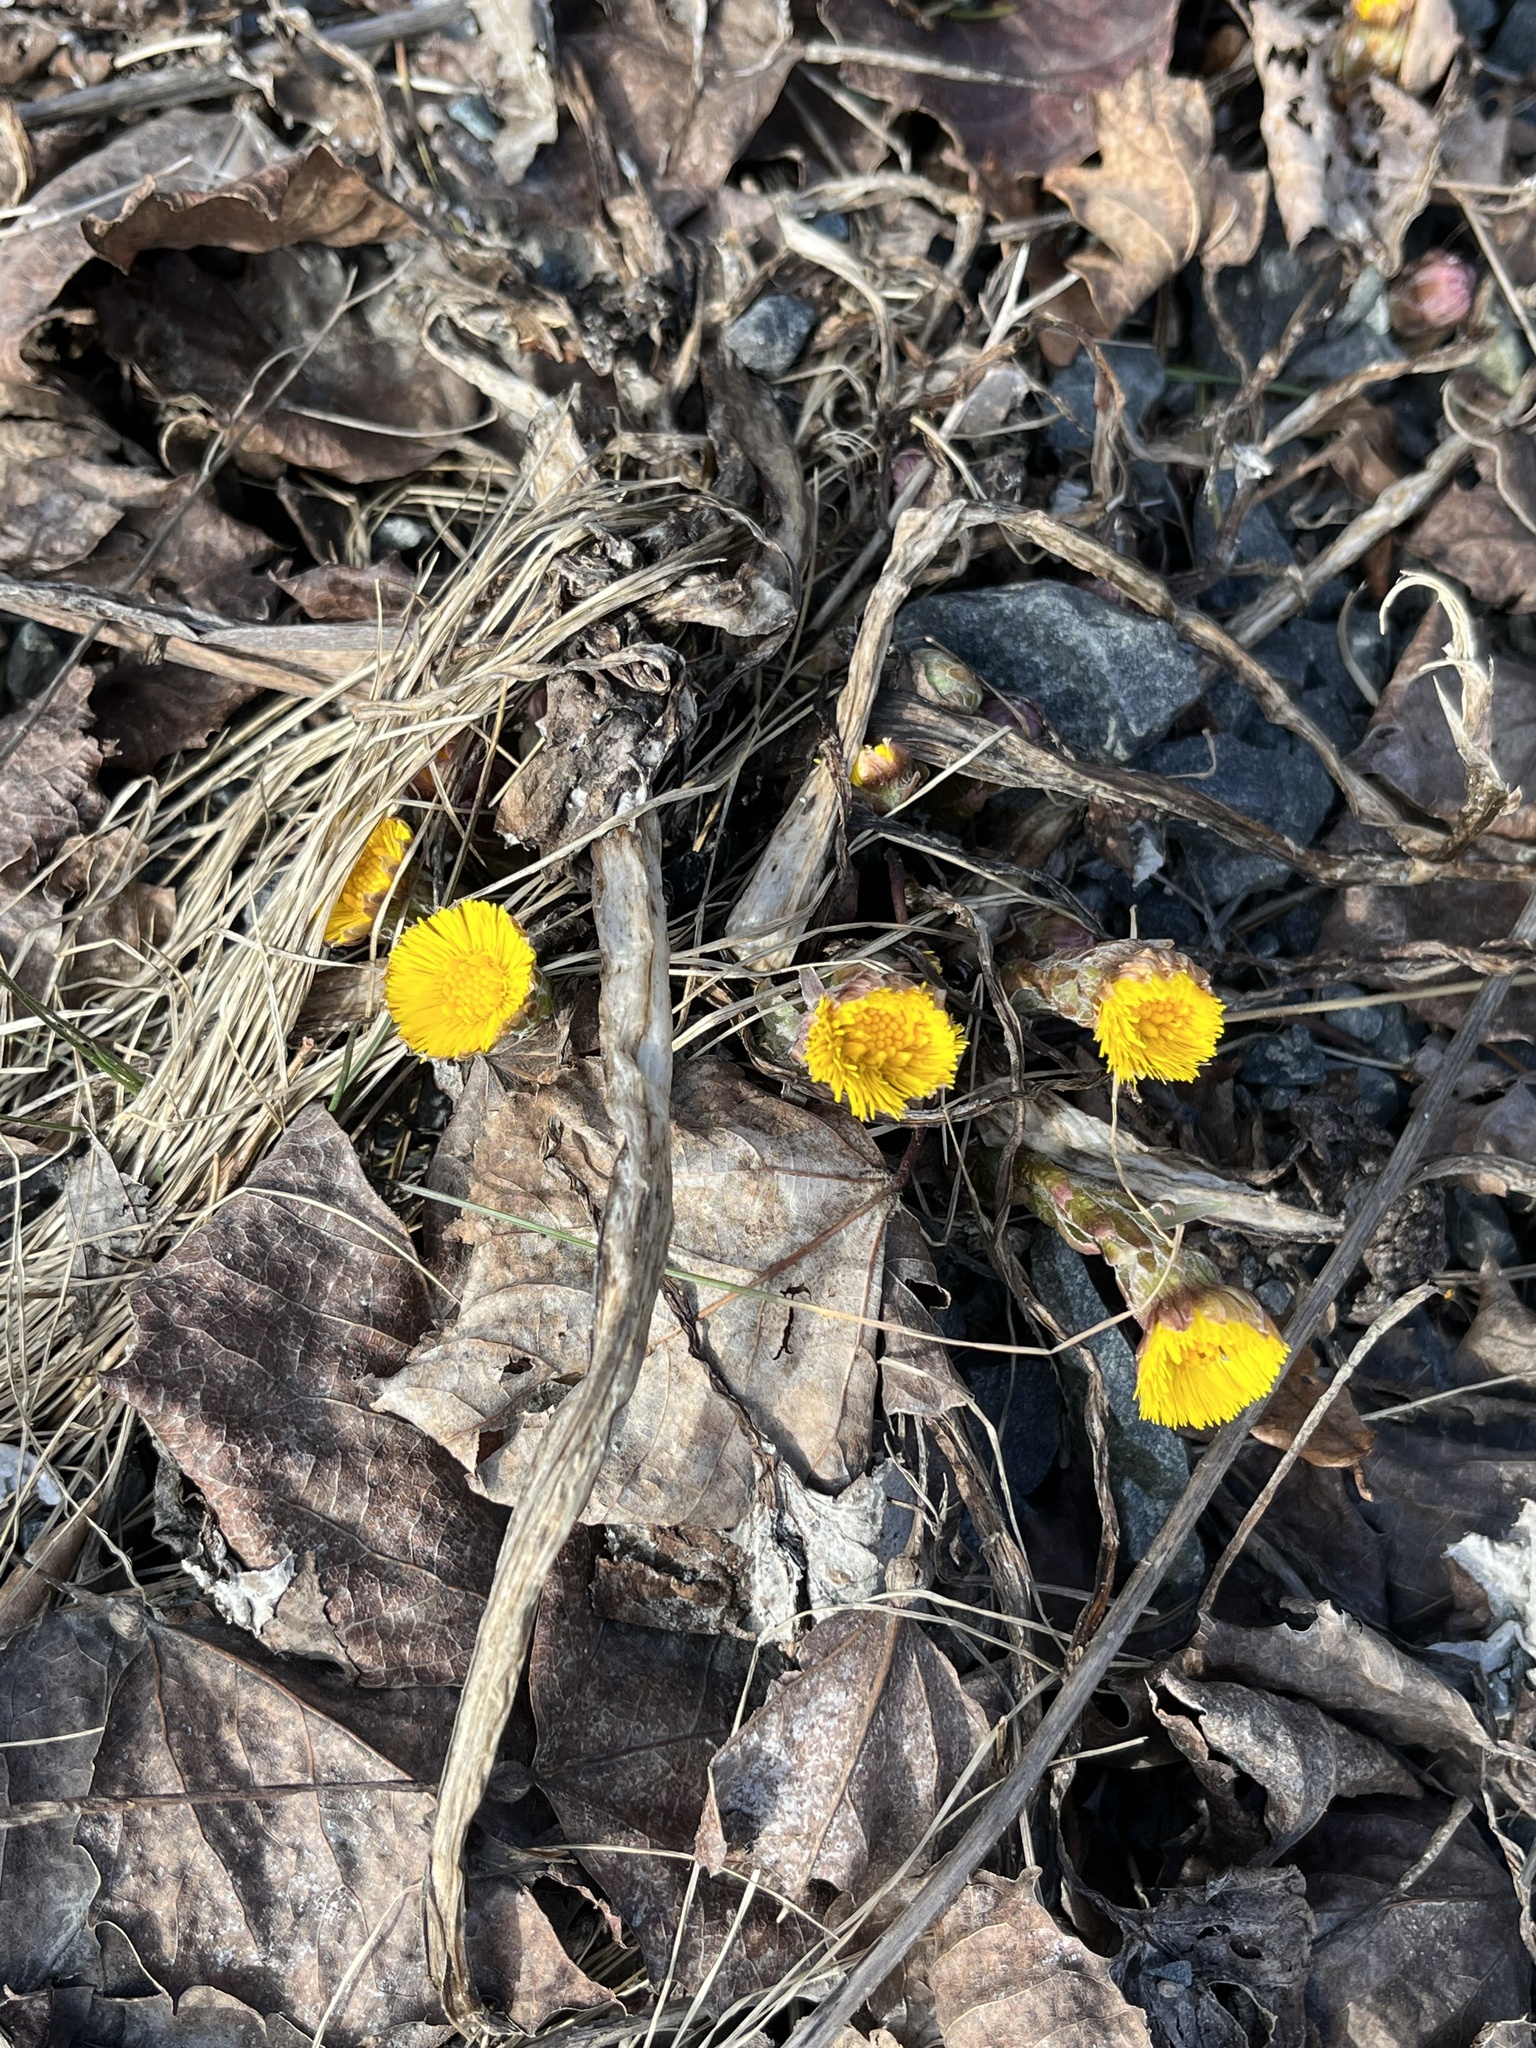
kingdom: Plantae
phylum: Tracheophyta
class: Magnoliopsida
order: Asterales
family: Asteraceae
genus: Tussilago
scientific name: Tussilago farfara
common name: Coltsfoot
